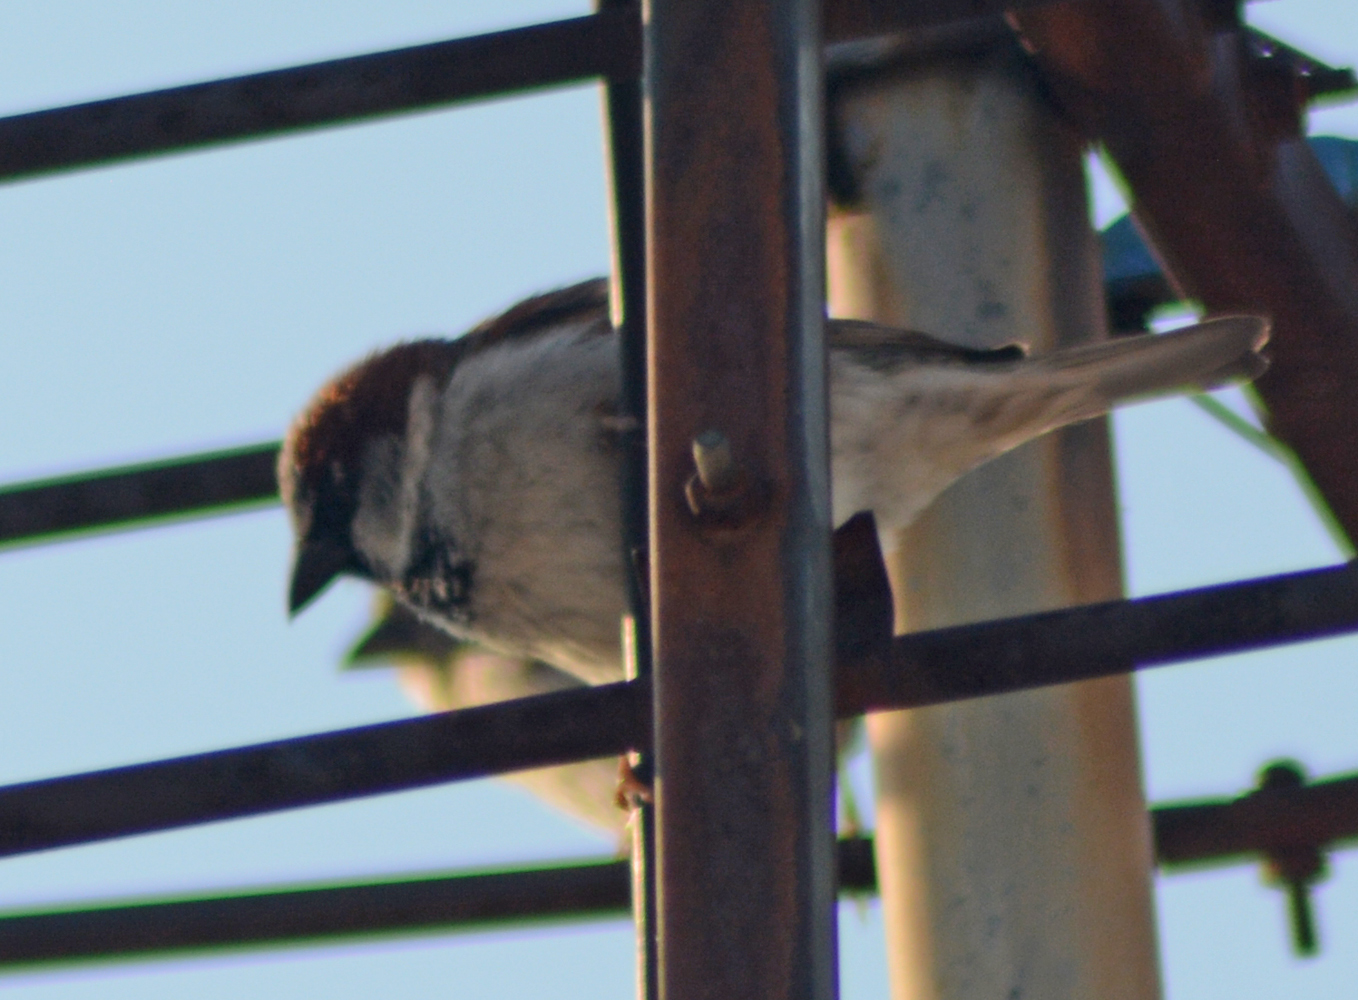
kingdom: Animalia
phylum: Chordata
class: Aves
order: Passeriformes
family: Passeridae
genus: Passer
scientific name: Passer domesticus
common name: House sparrow
